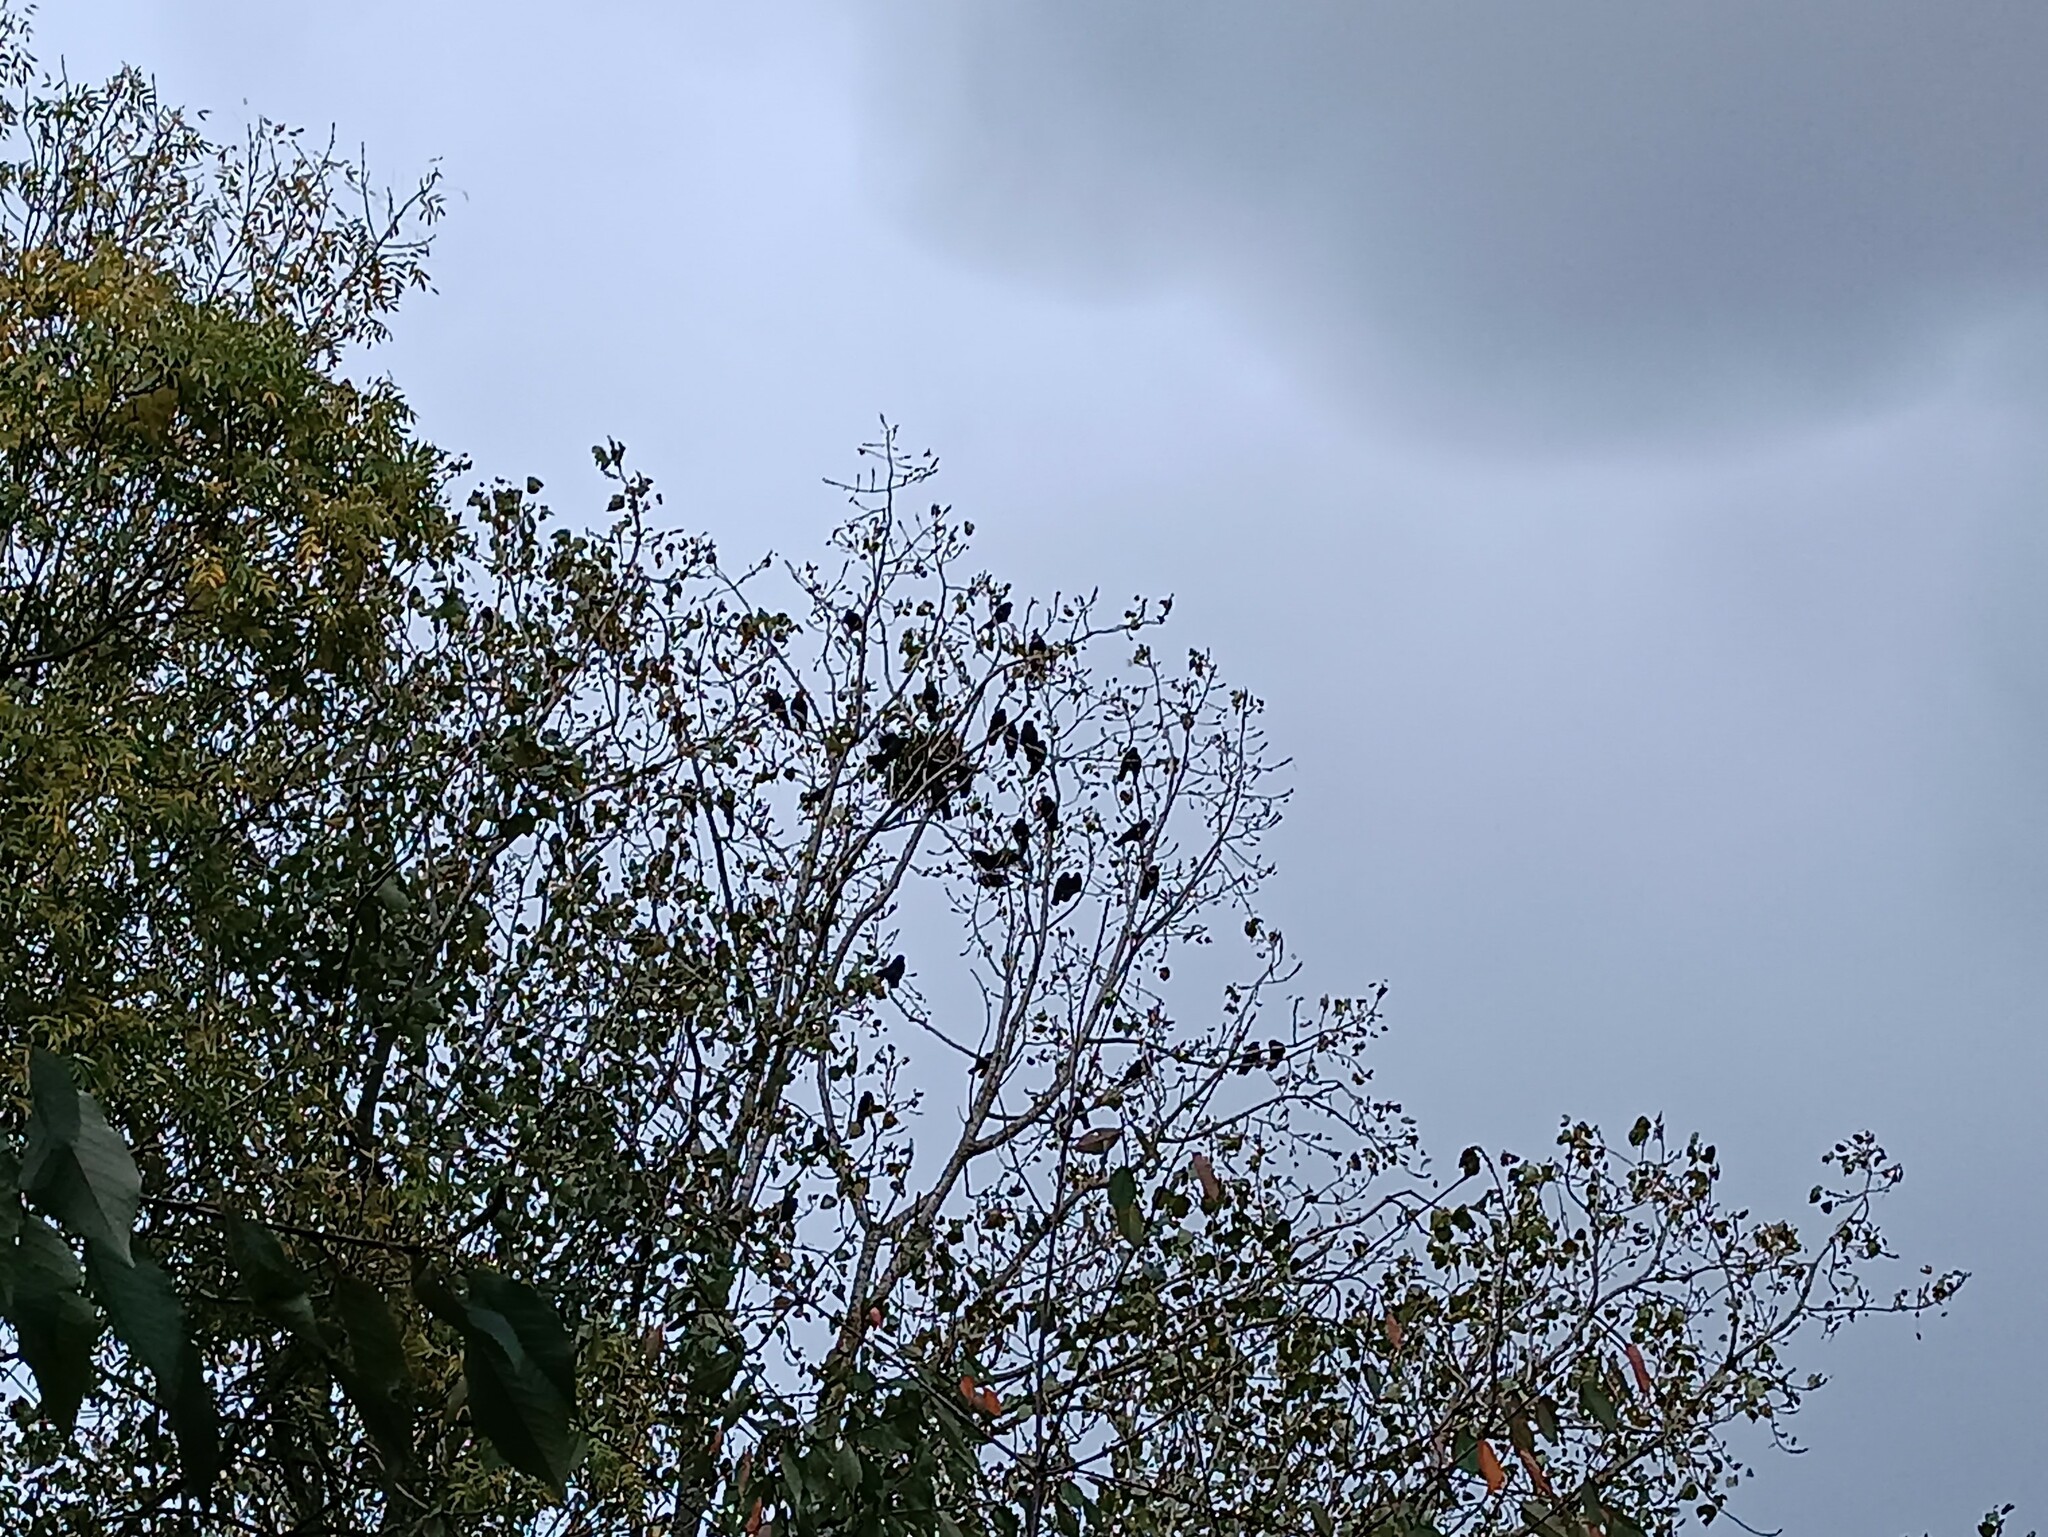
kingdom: Animalia
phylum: Chordata
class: Aves
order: Passeriformes
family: Corvidae
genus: Coloeus
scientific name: Coloeus monedula
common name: Western jackdaw
